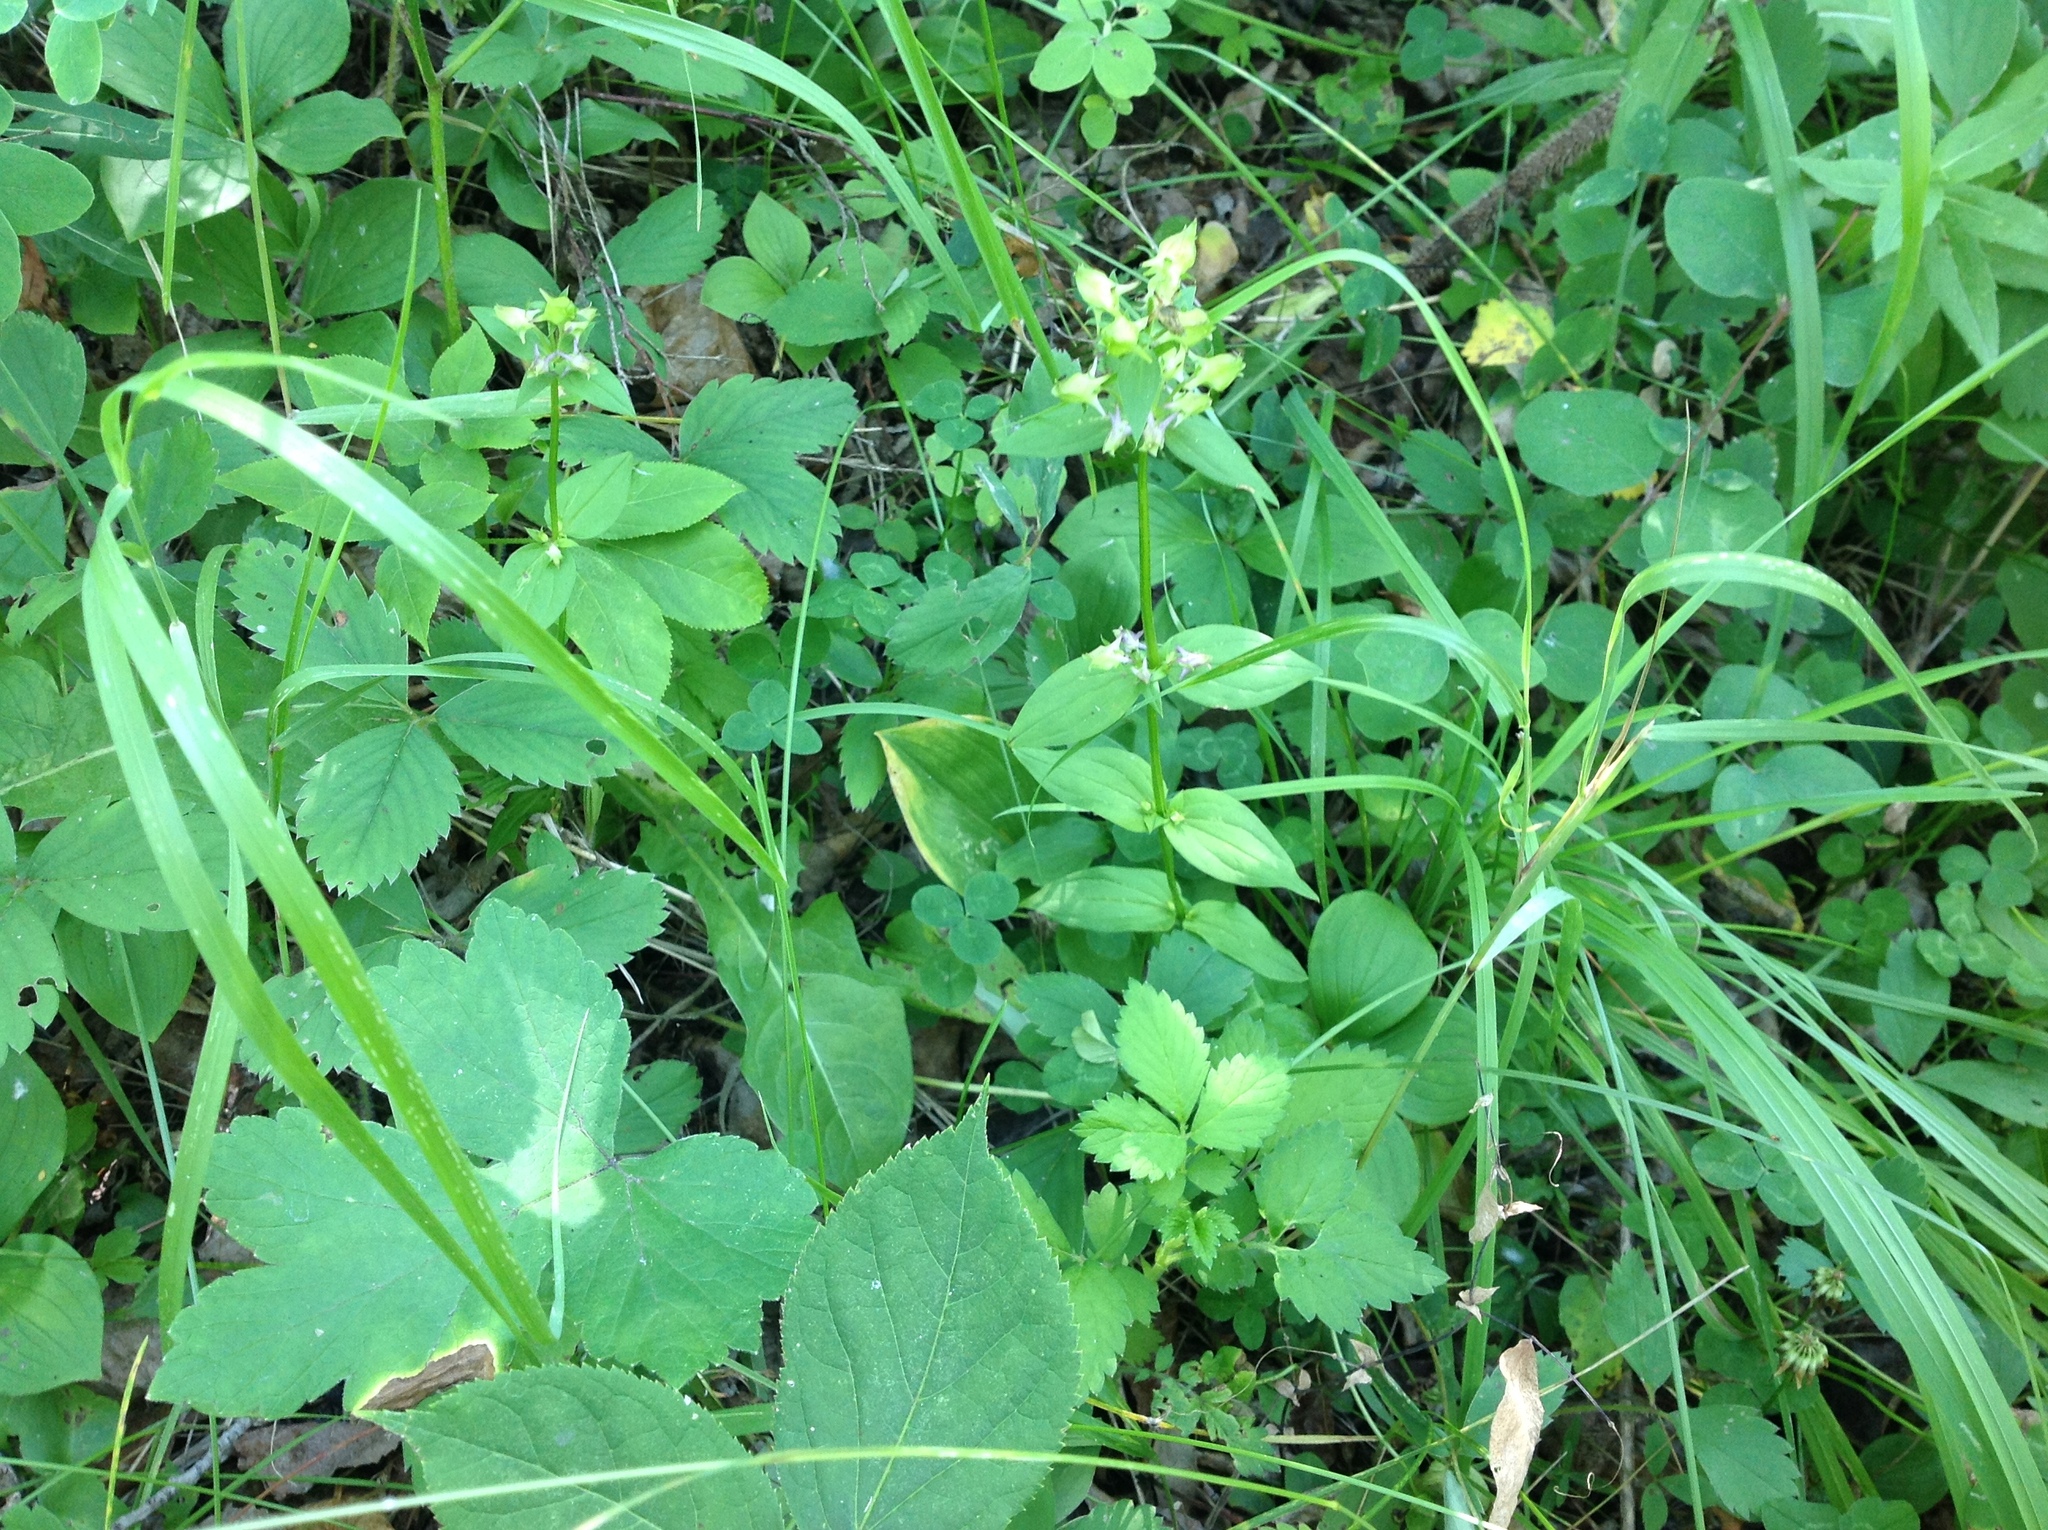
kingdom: Plantae
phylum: Tracheophyta
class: Magnoliopsida
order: Gentianales
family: Gentianaceae
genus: Halenia
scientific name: Halenia deflexa
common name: American spurred gentian
